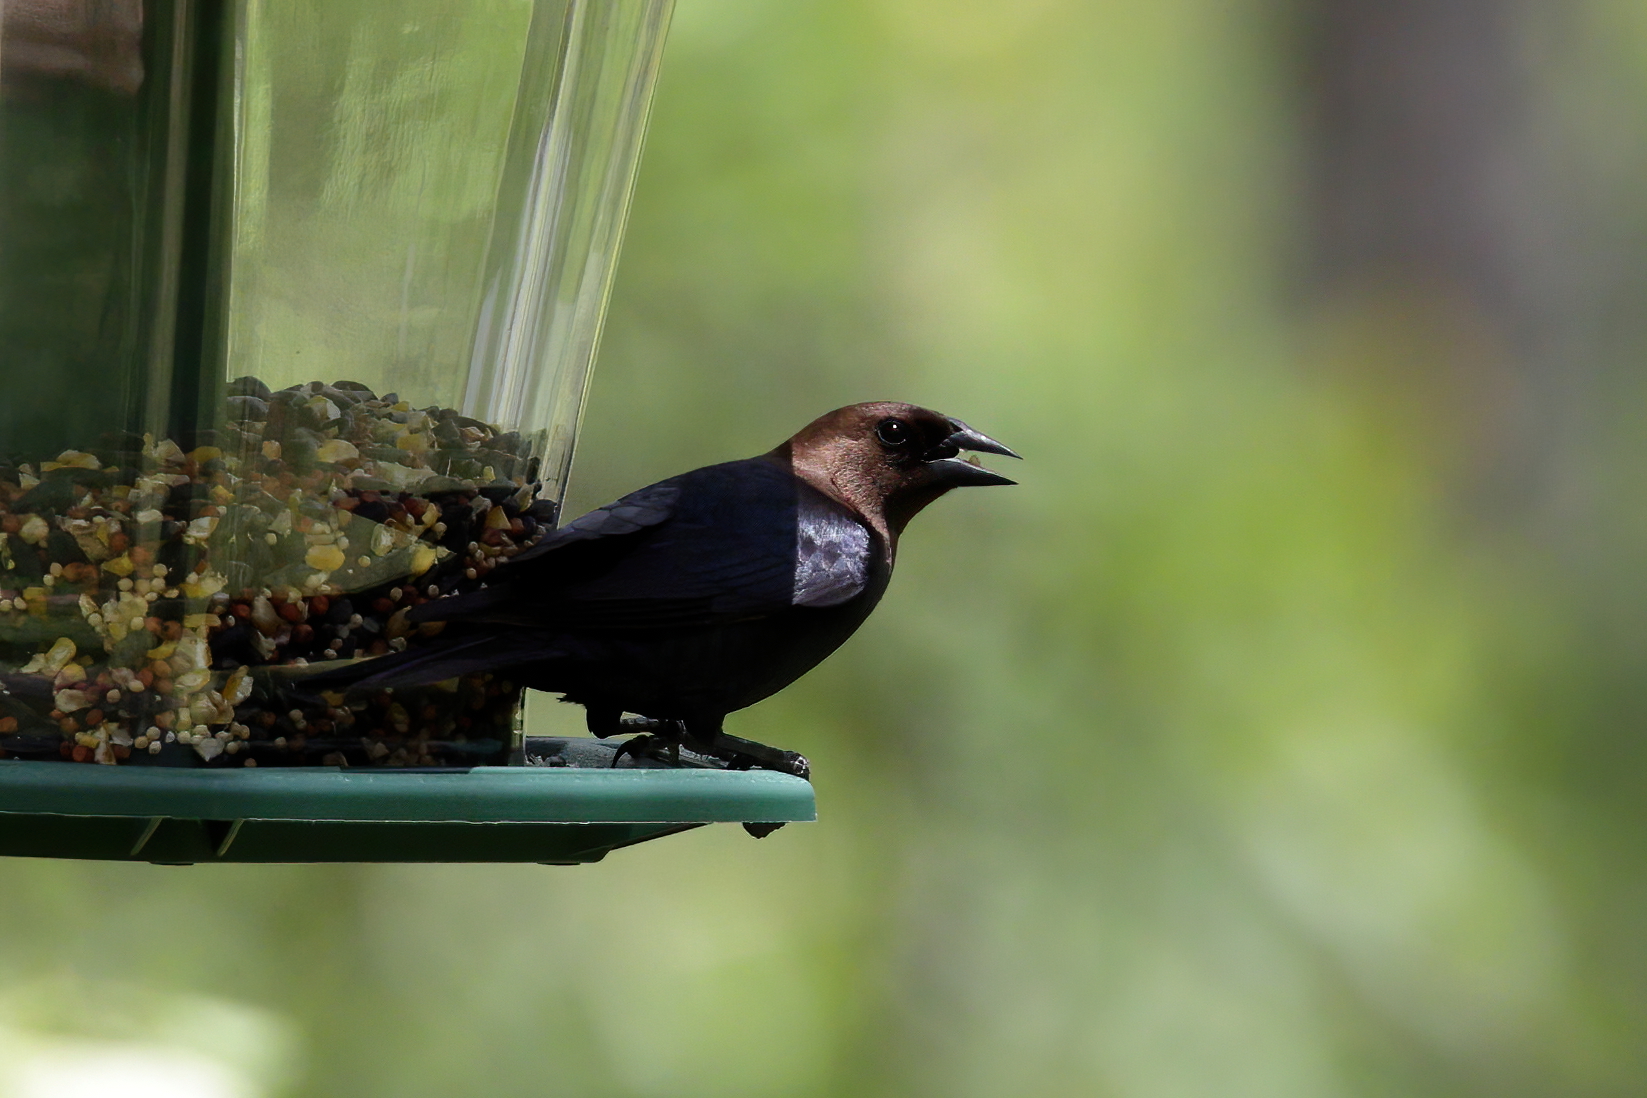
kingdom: Animalia
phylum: Chordata
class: Aves
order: Passeriformes
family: Icteridae
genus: Molothrus
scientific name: Molothrus ater
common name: Brown-headed cowbird
